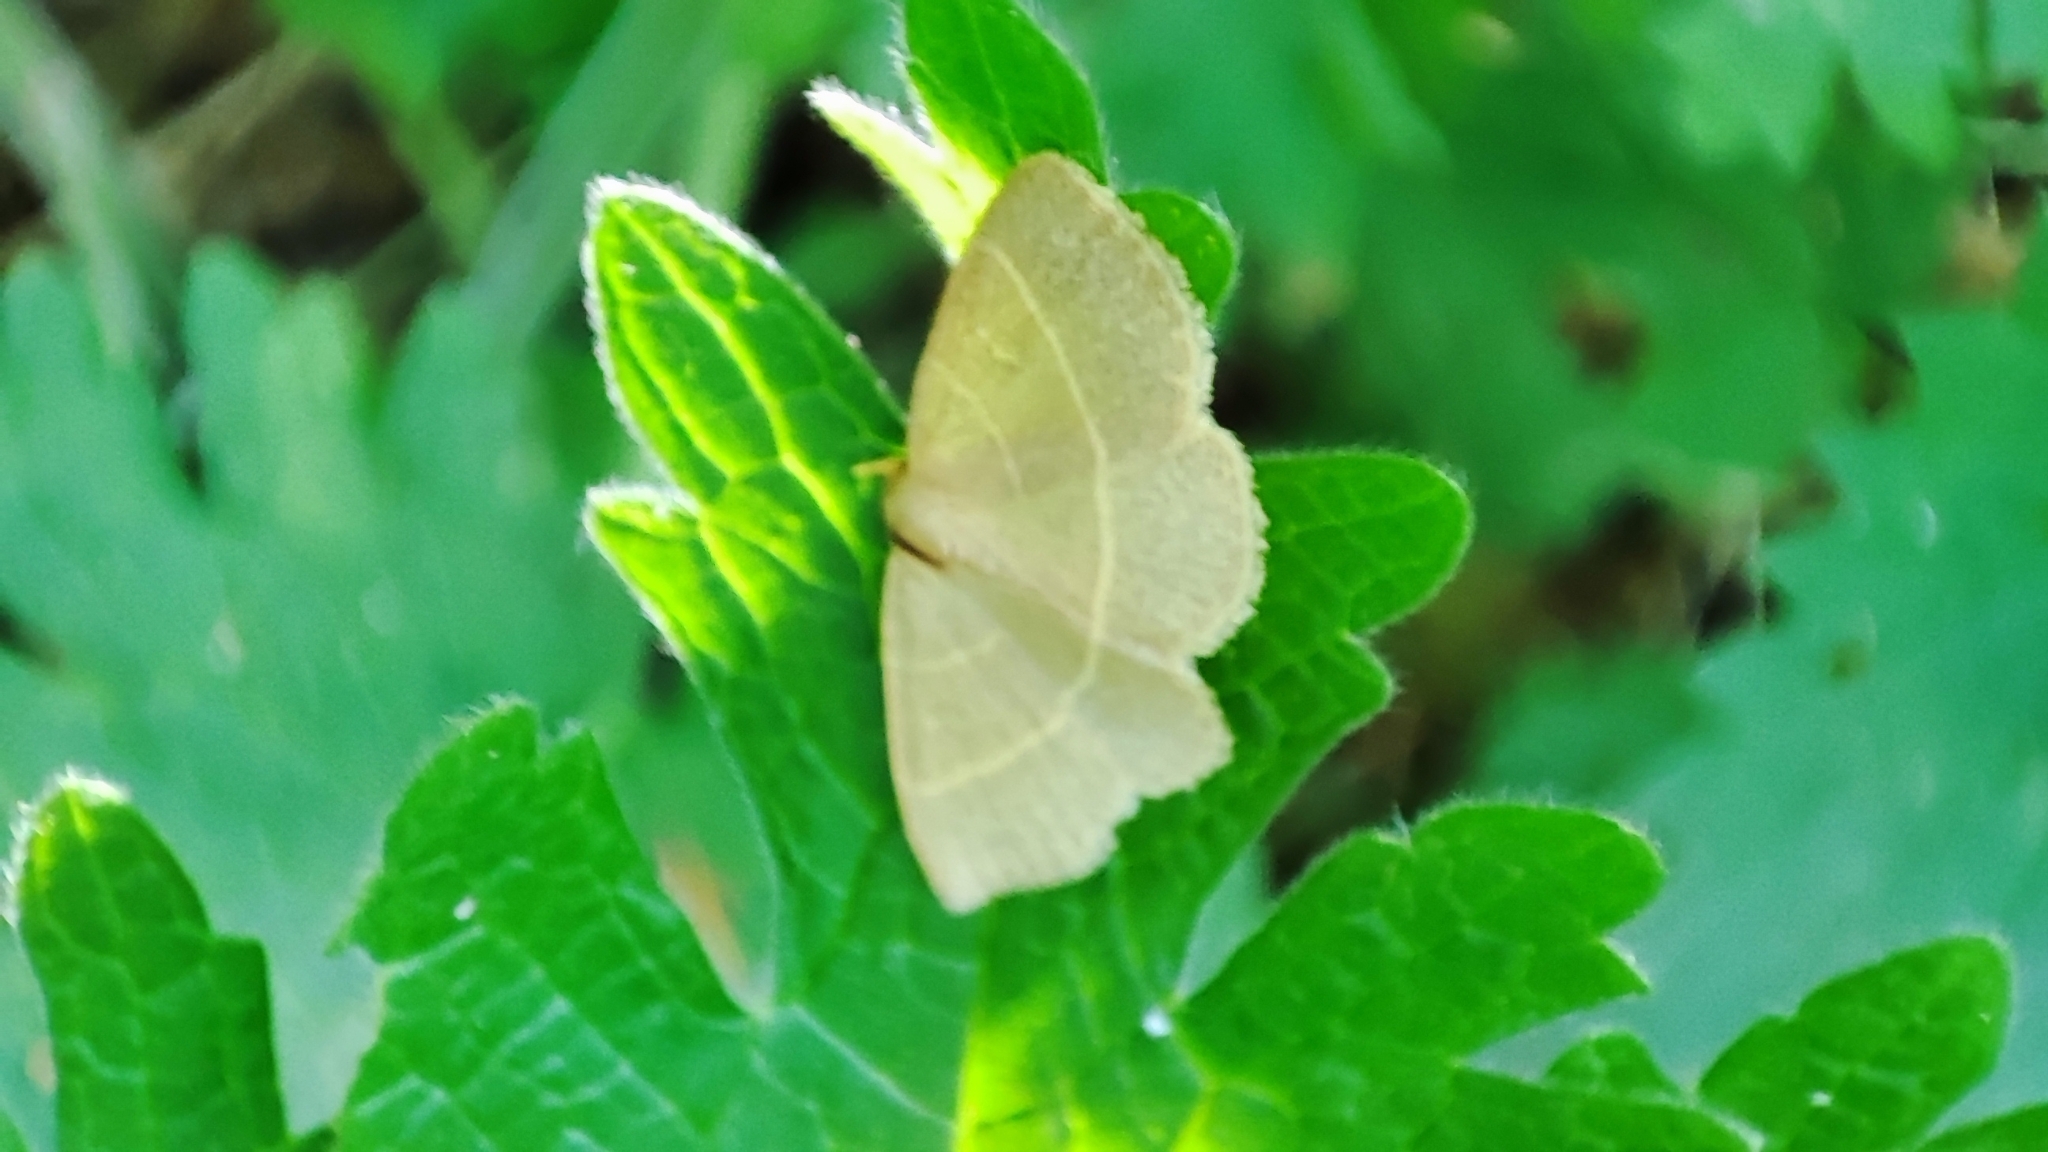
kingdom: Animalia
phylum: Arthropoda
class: Insecta
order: Lepidoptera
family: Geometridae
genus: Chlorissa
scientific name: Chlorissa viridata
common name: Small grass emerald
